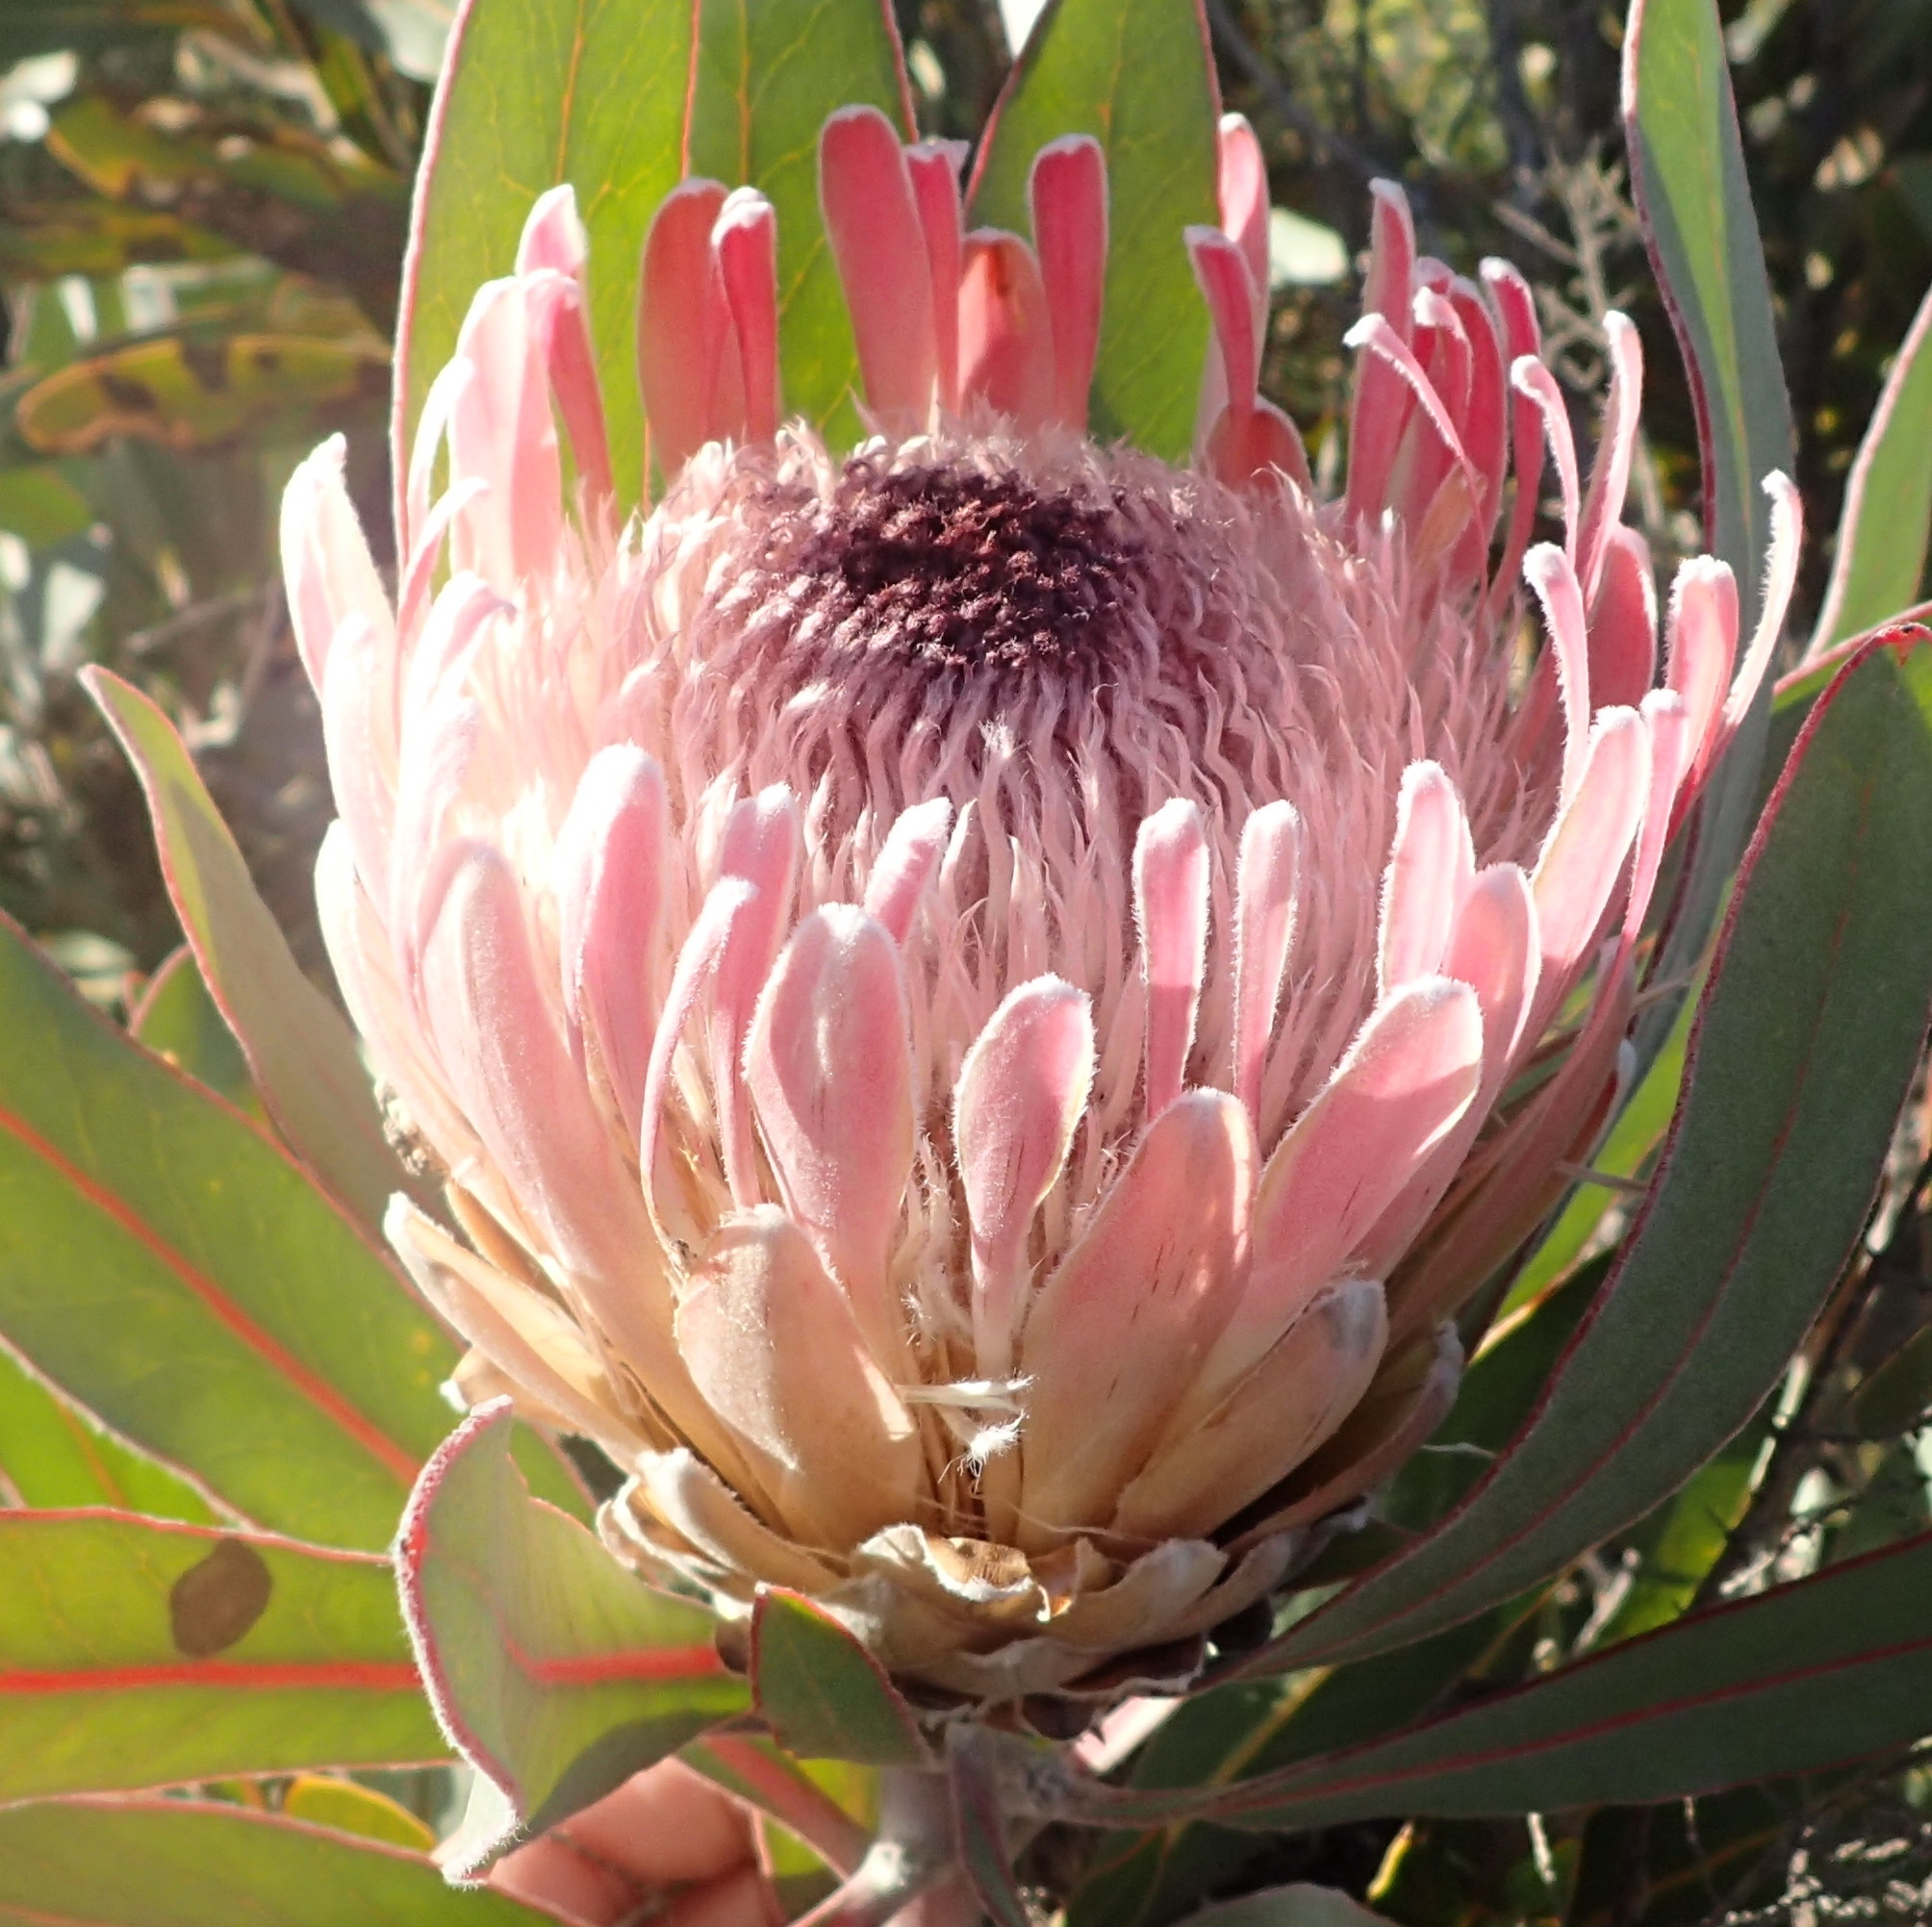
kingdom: Plantae
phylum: Tracheophyta
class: Magnoliopsida
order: Proteales
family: Proteaceae
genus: Protea
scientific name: Protea lorifolia
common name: Strap-leaved protea
